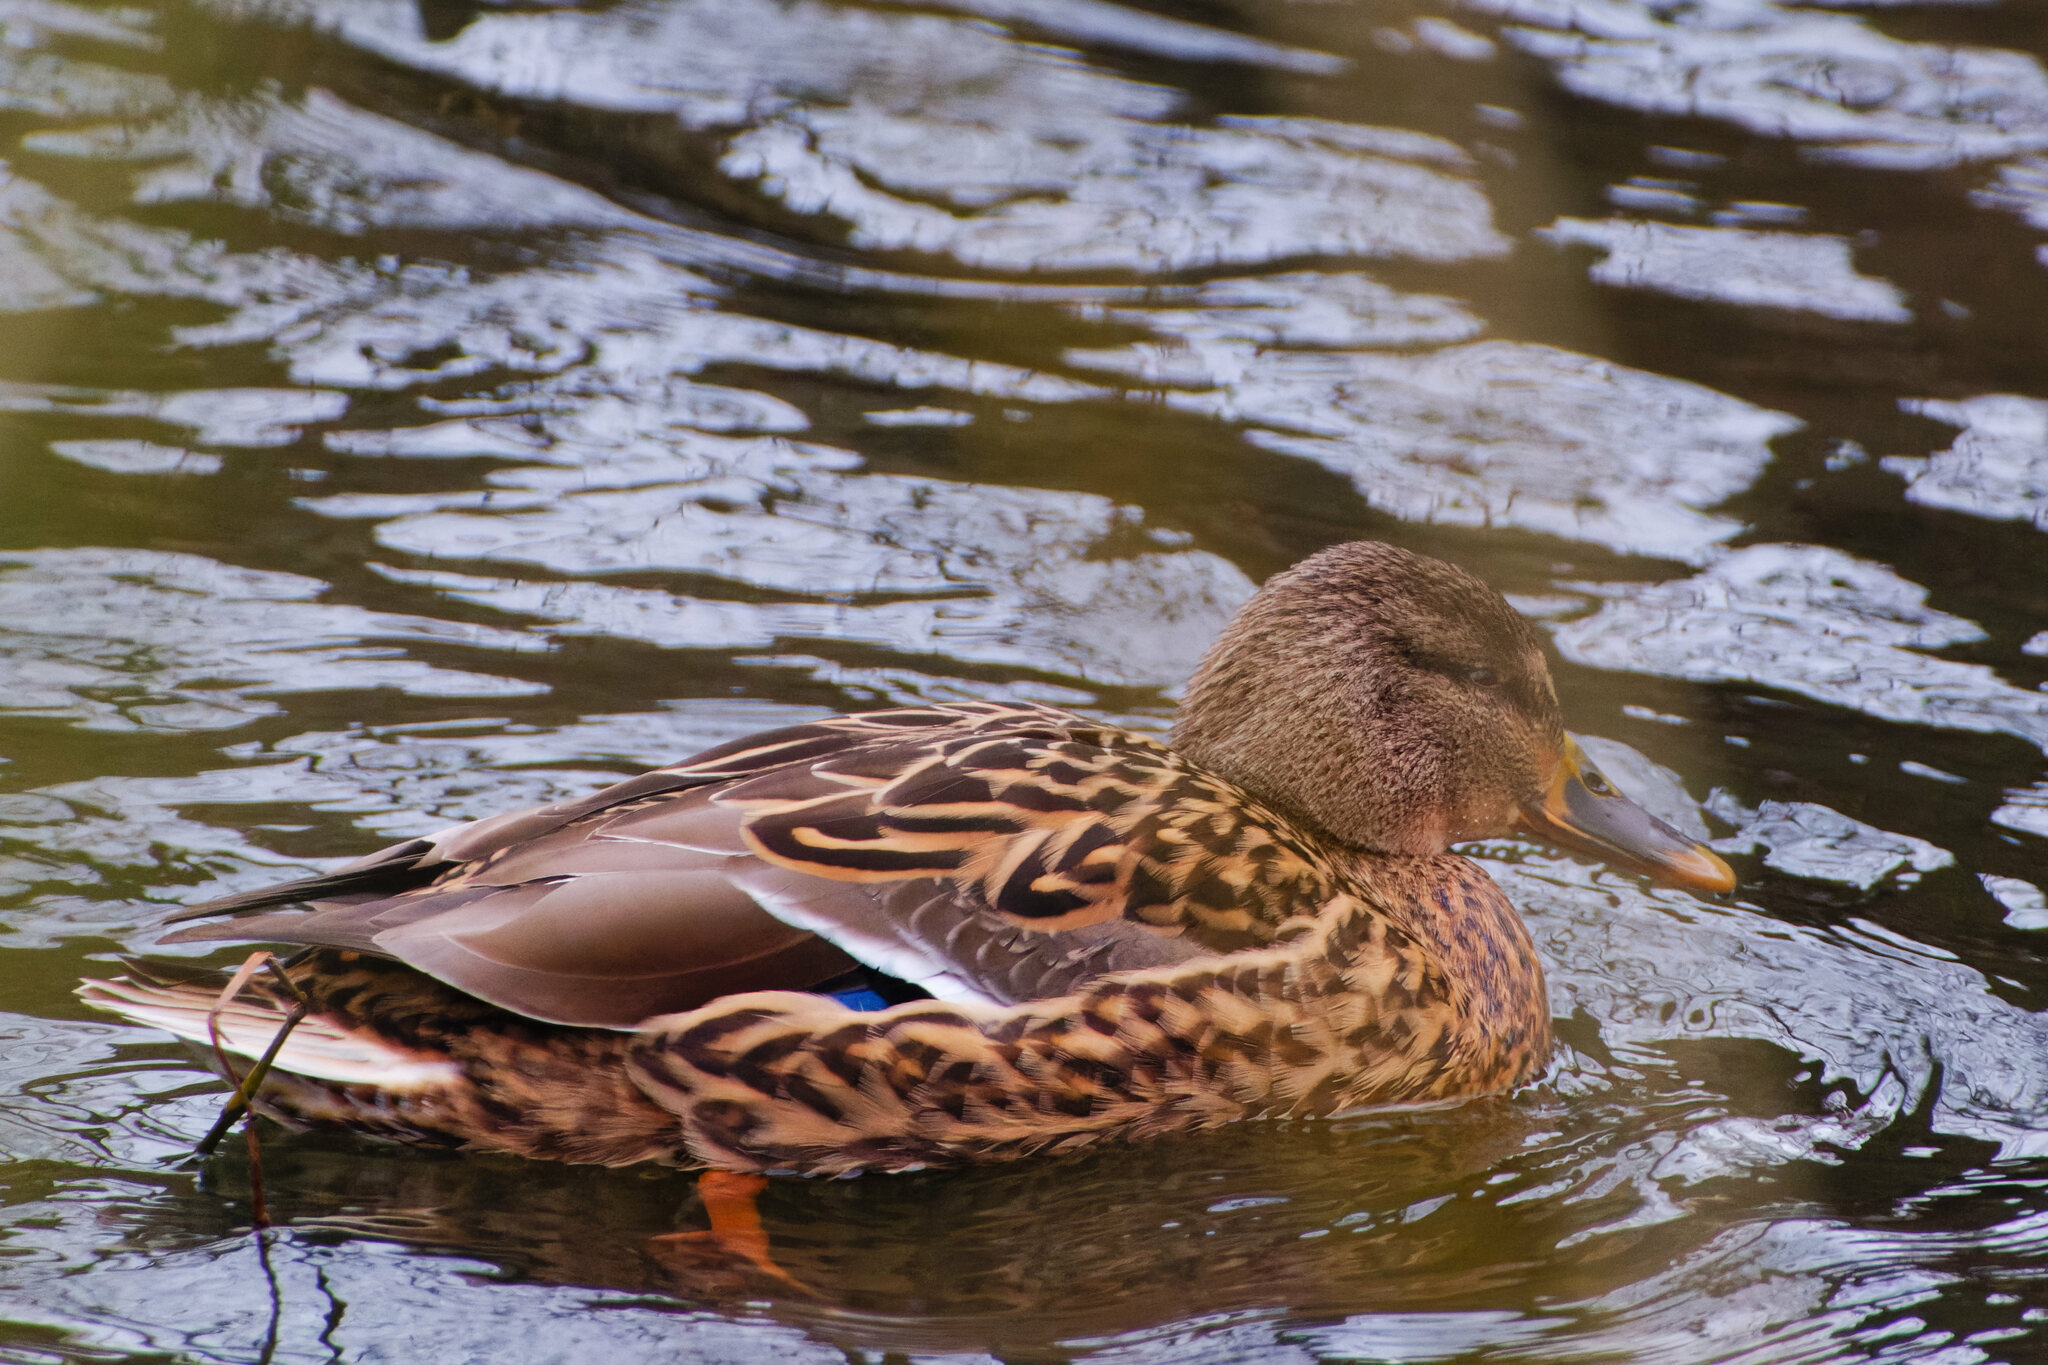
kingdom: Animalia
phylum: Chordata
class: Aves
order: Anseriformes
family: Anatidae
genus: Anas
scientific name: Anas platyrhynchos
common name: Mallard
